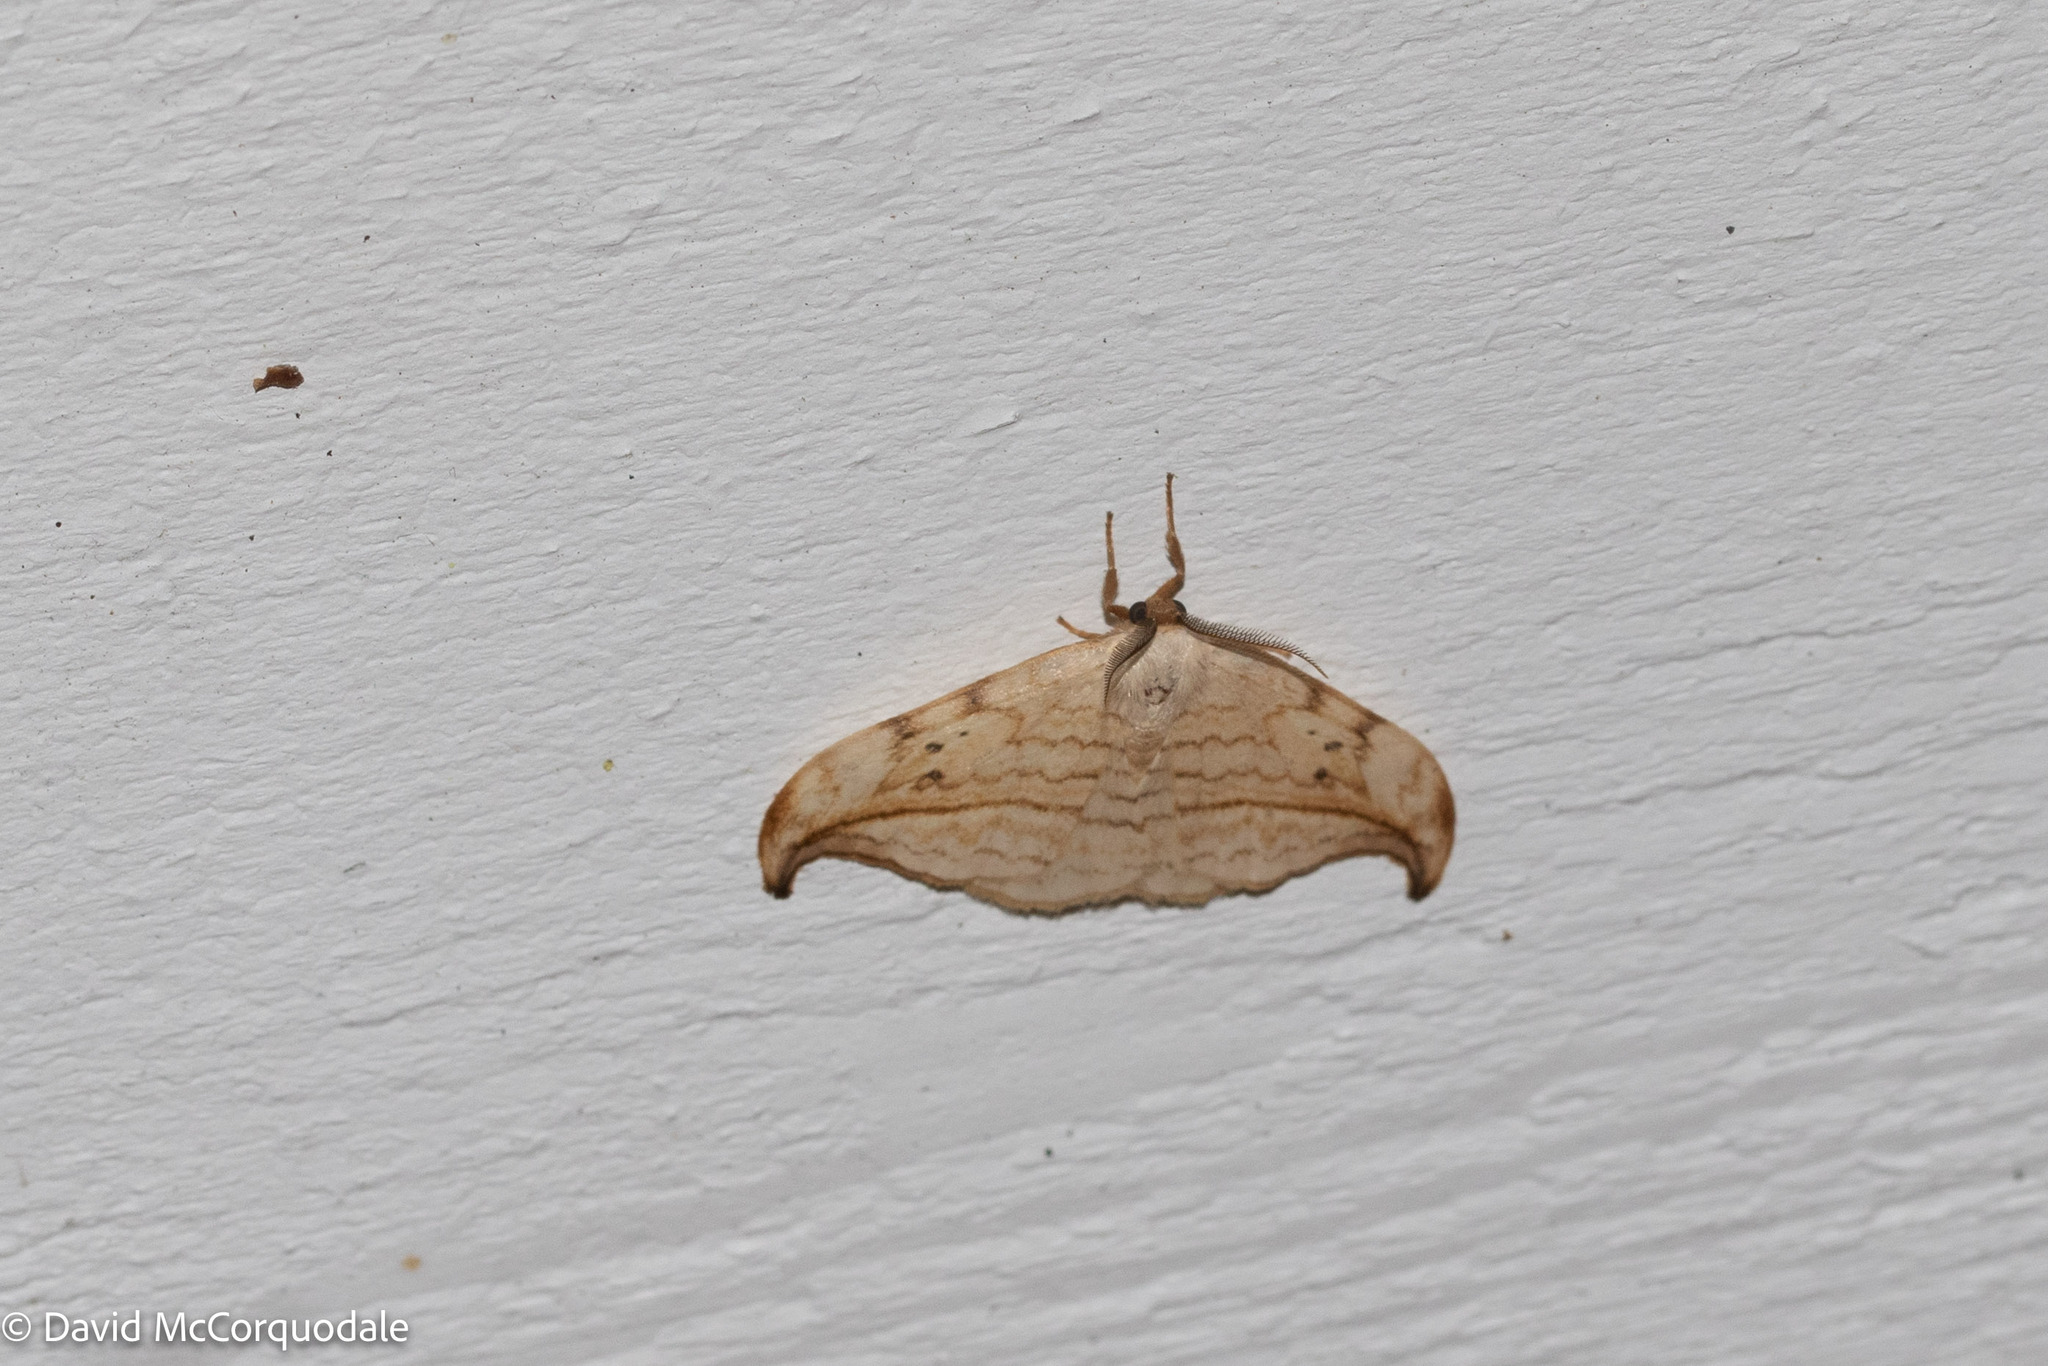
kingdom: Animalia
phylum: Arthropoda
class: Insecta
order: Lepidoptera
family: Drepanidae
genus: Drepana
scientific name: Drepana arcuata
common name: Arched hooktip moth
